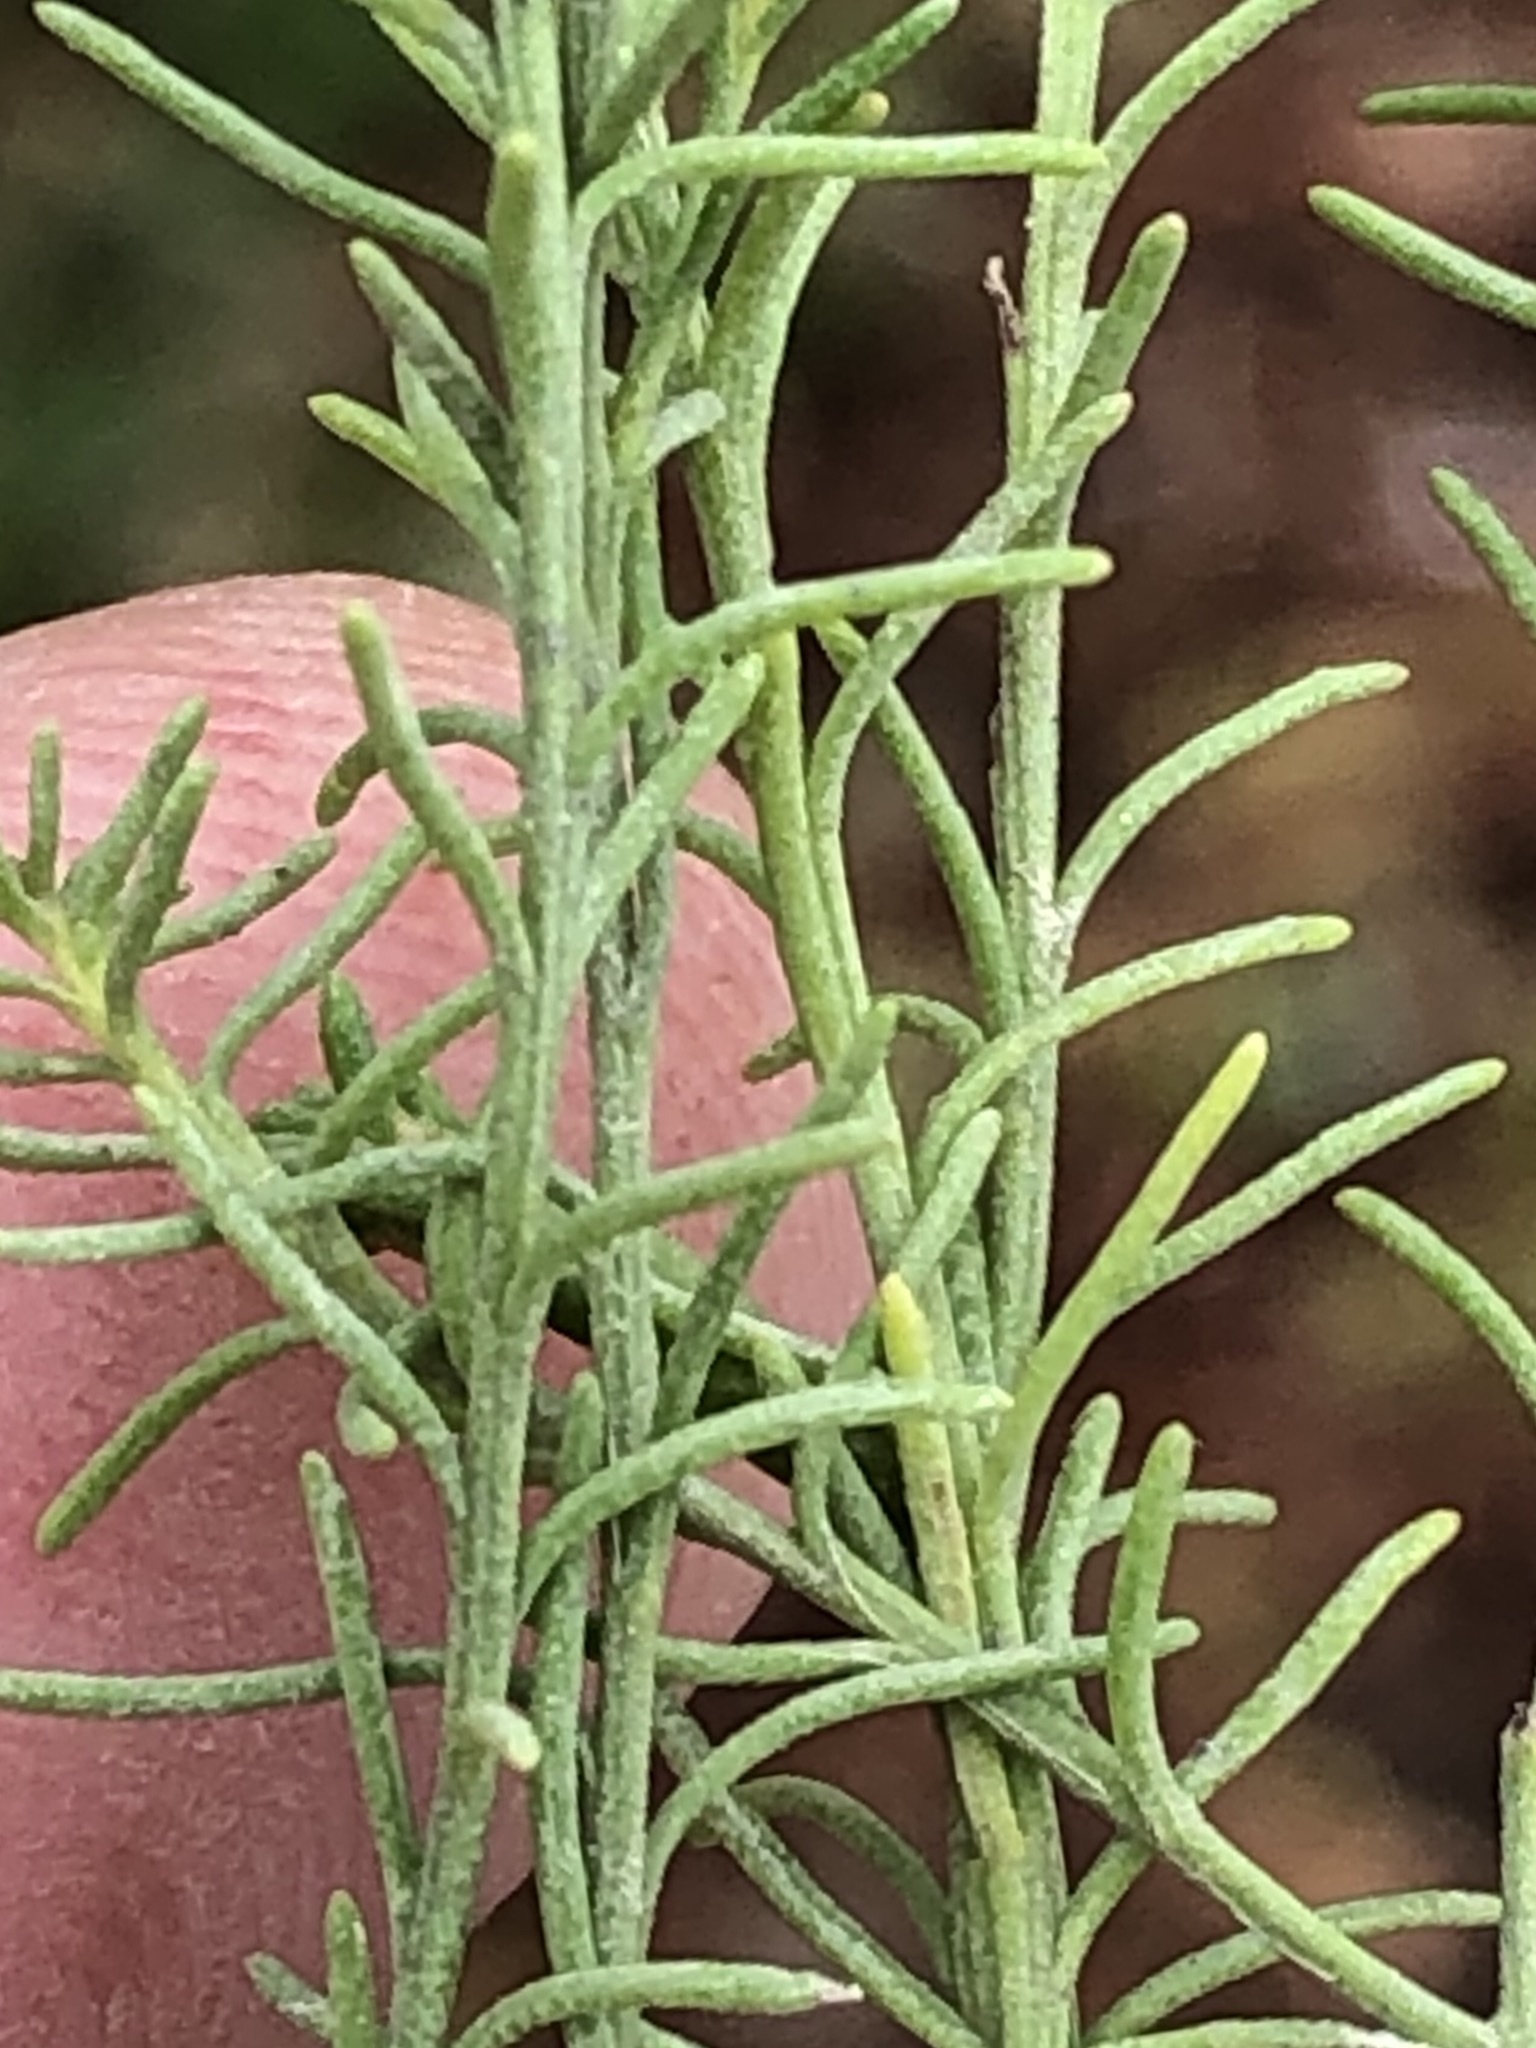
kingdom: Plantae
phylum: Tracheophyta
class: Magnoliopsida
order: Asterales
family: Asteraceae
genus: Chrysocoma
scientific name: Chrysocoma ciliata
